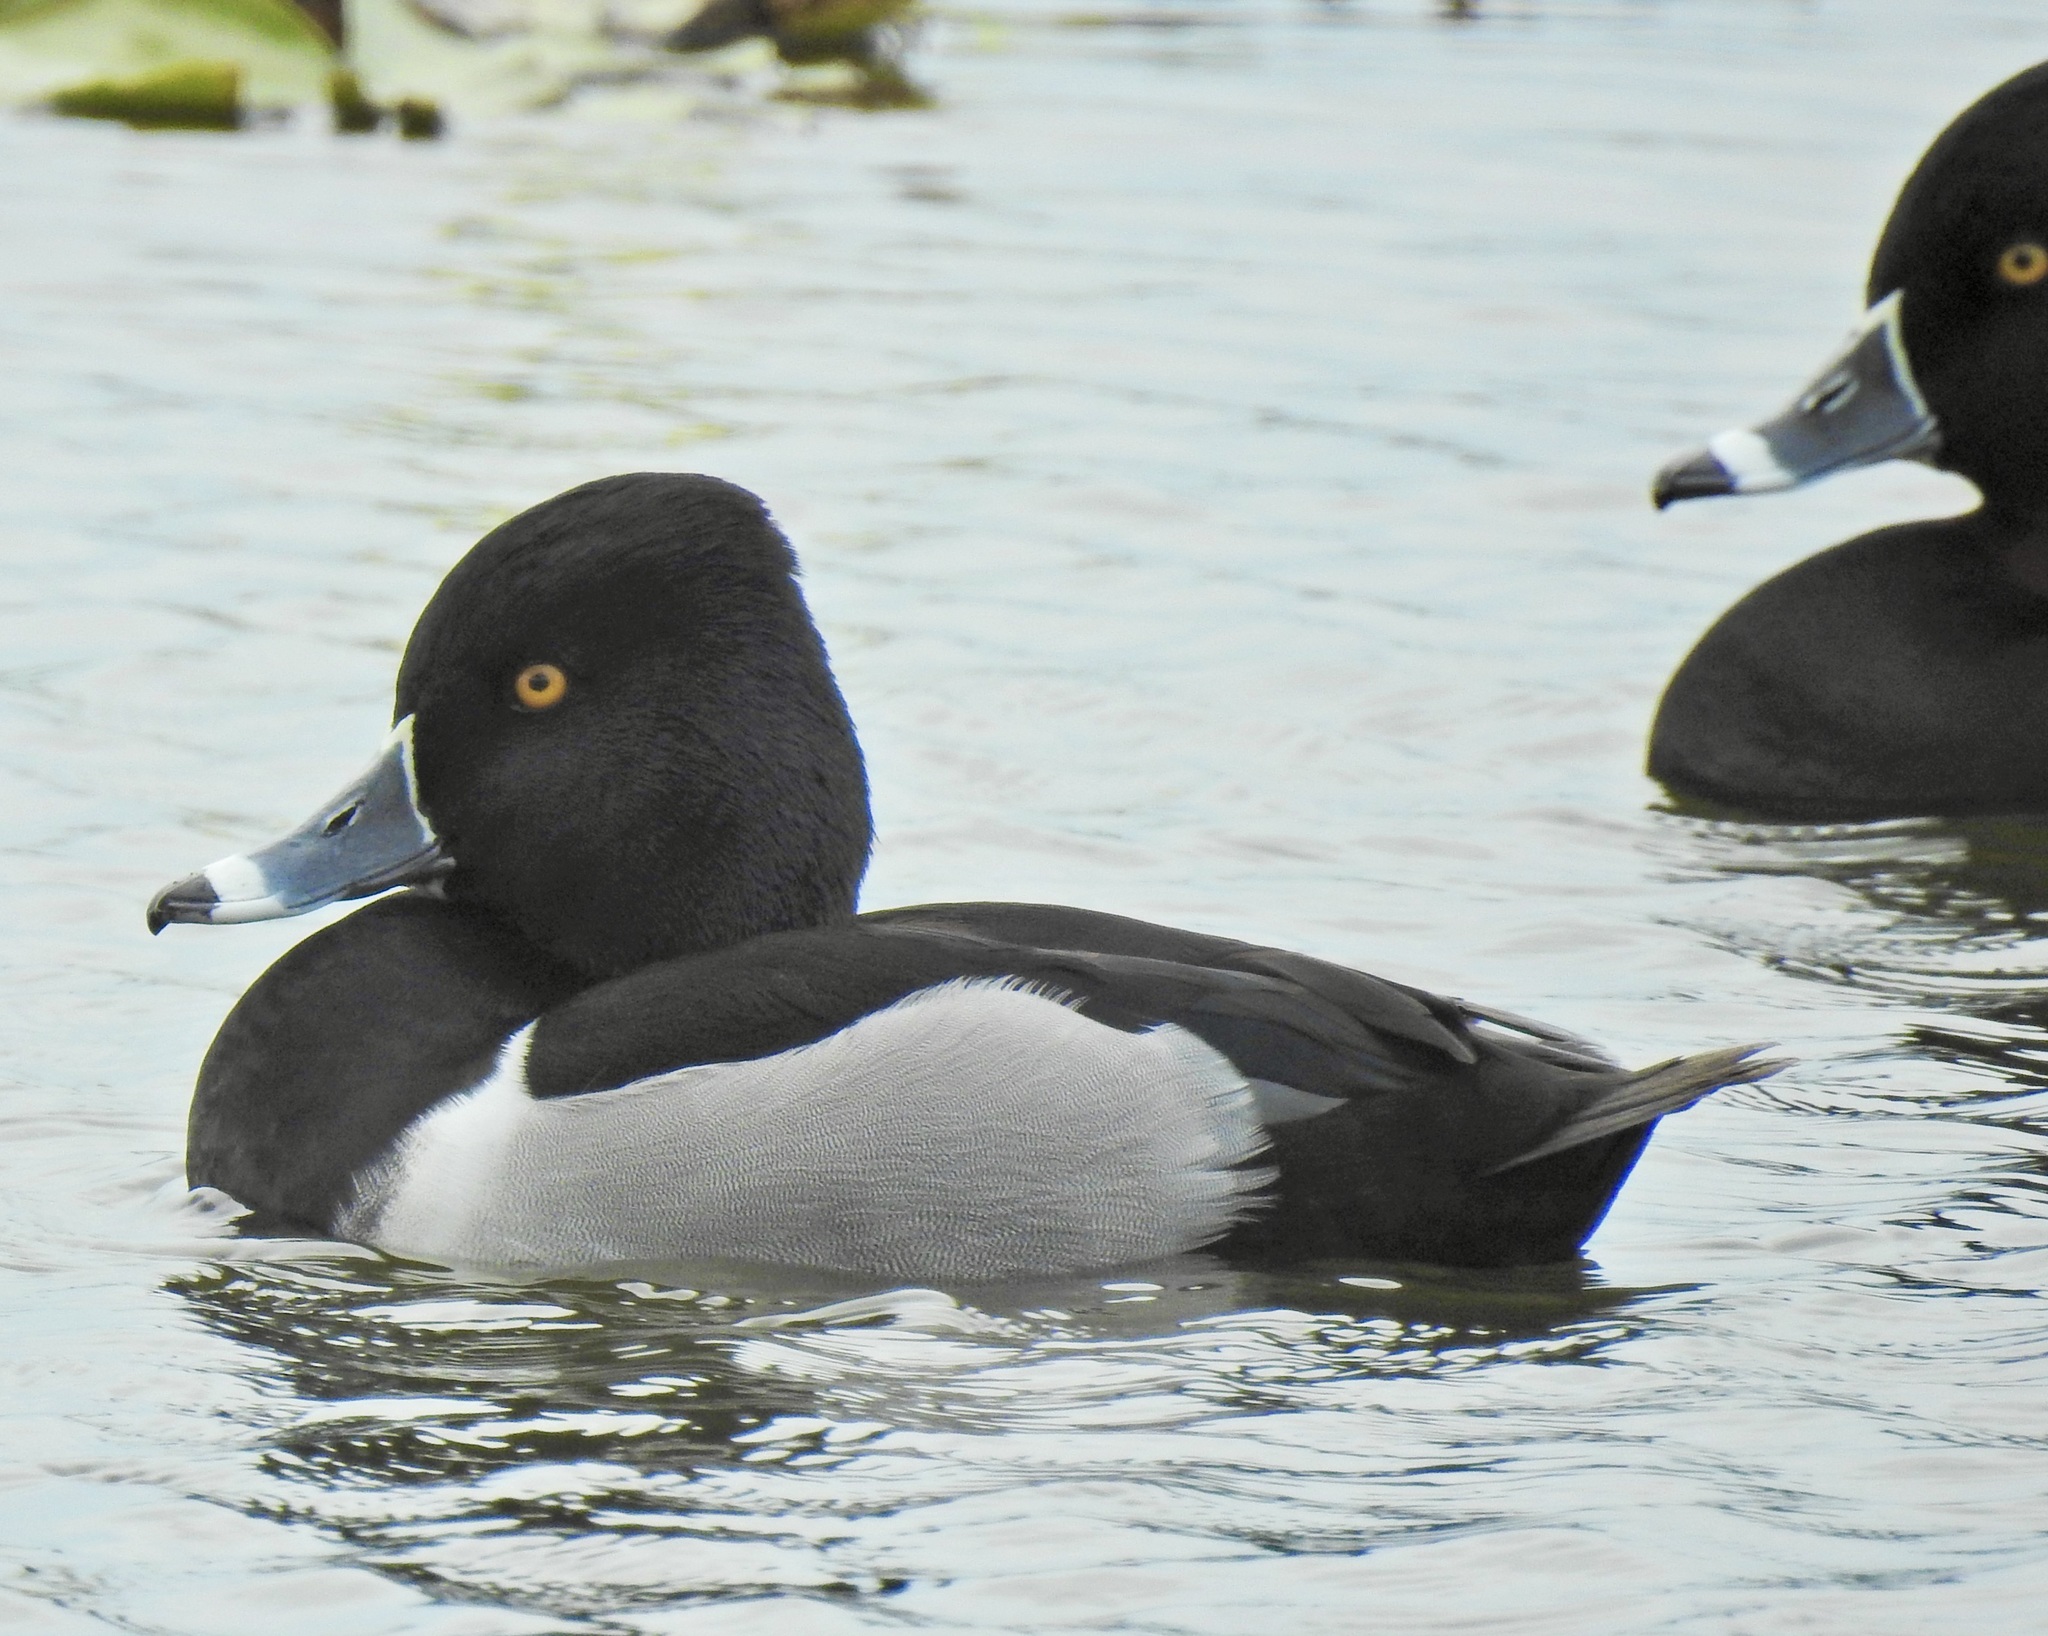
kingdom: Animalia
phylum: Chordata
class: Aves
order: Anseriformes
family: Anatidae
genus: Aythya
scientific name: Aythya collaris
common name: Ring-necked duck
